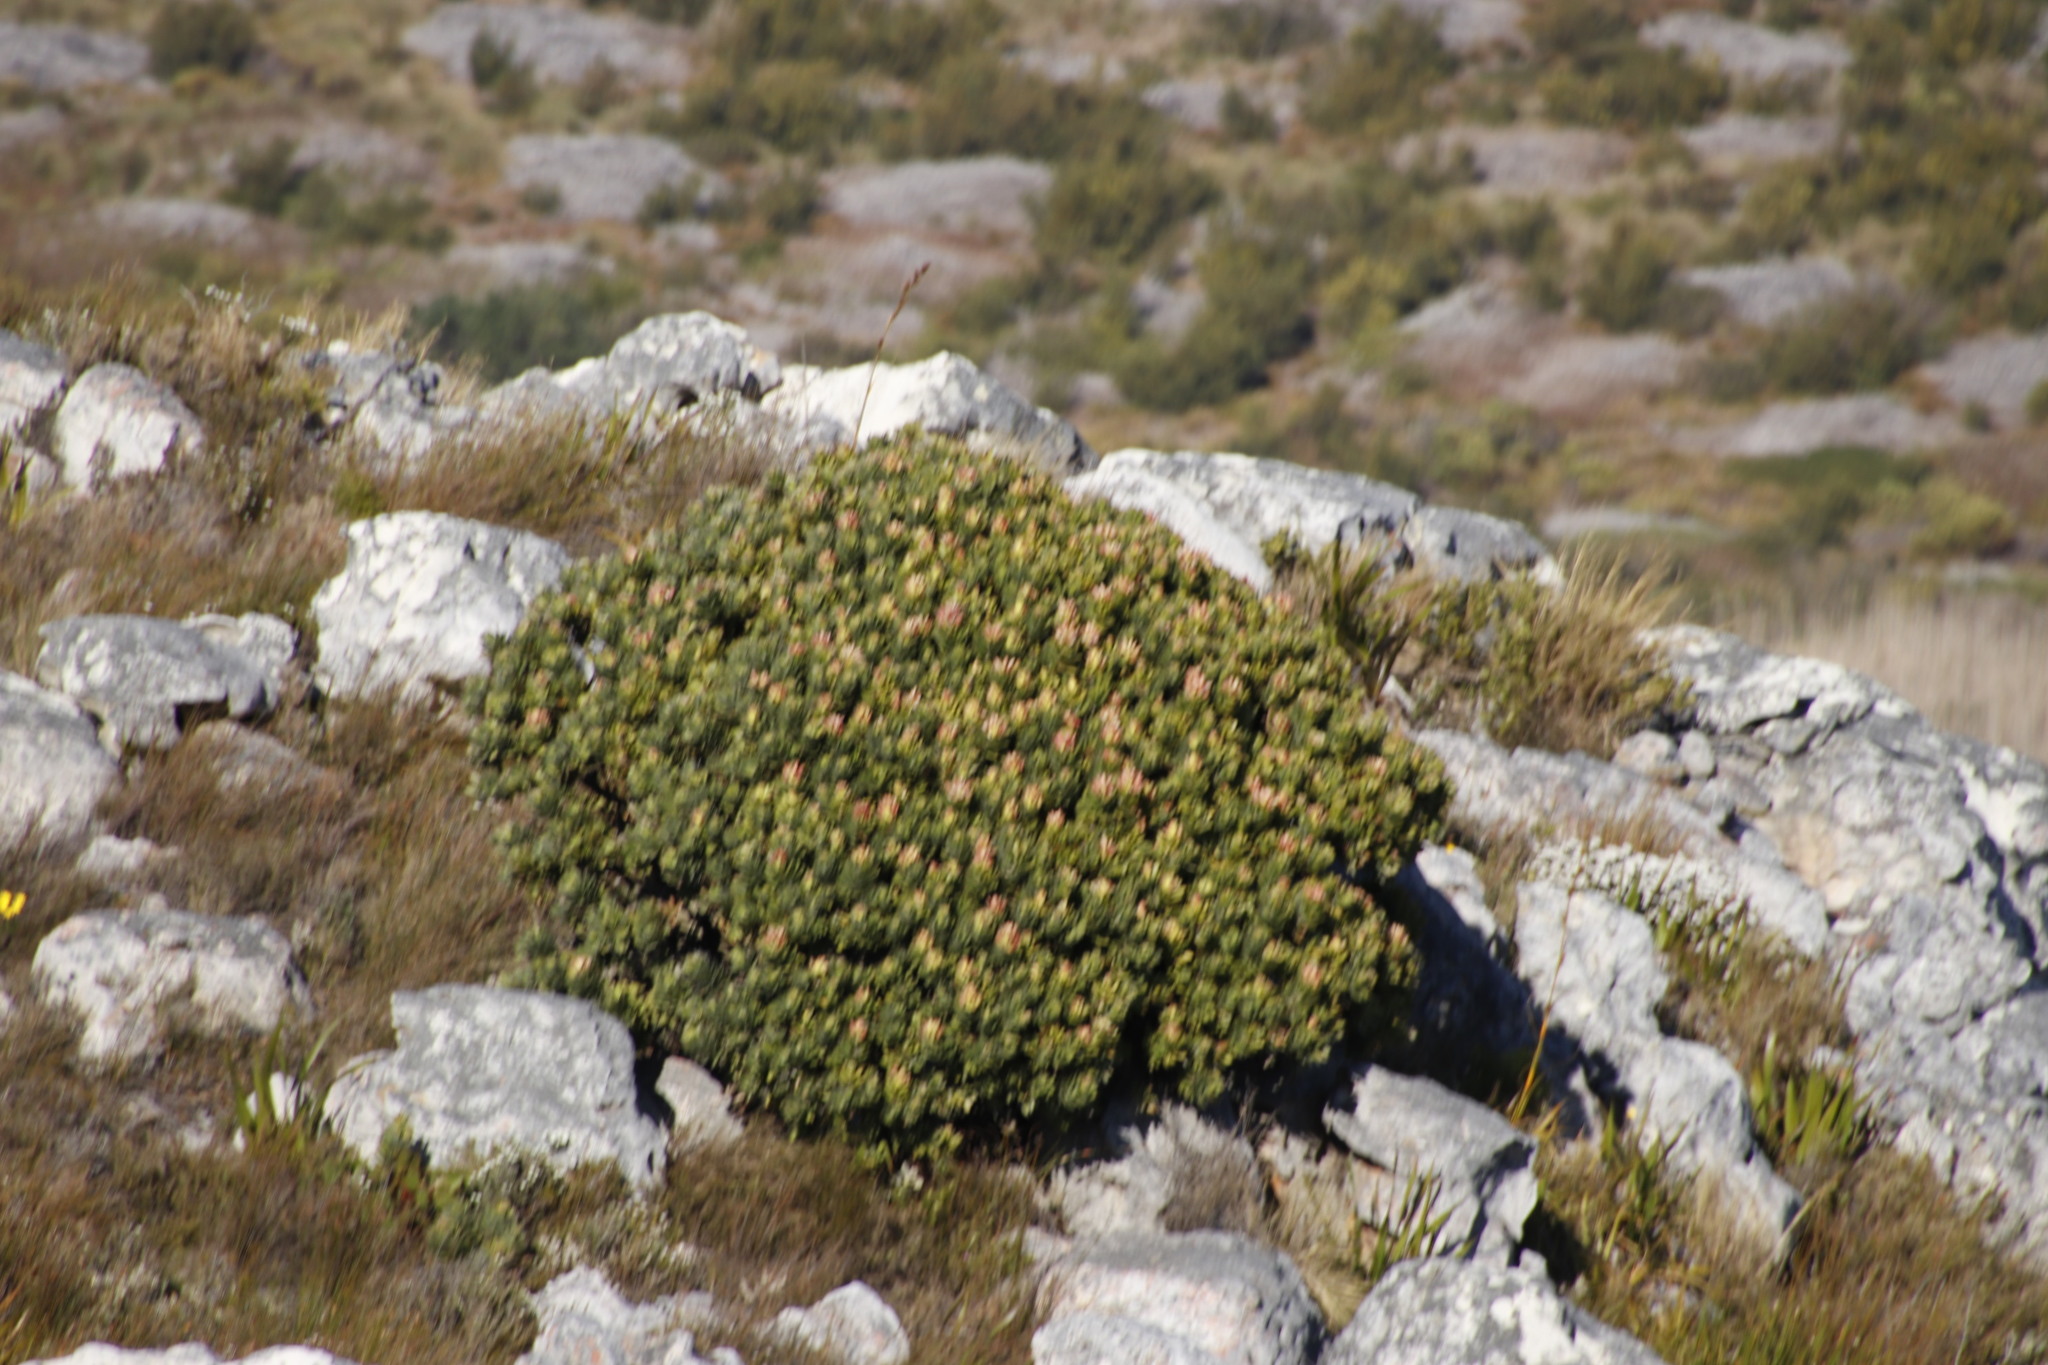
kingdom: Plantae
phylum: Tracheophyta
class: Magnoliopsida
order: Proteales
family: Proteaceae
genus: Mimetes
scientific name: Mimetes fimbriifolius
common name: Fringed bottlebrush
